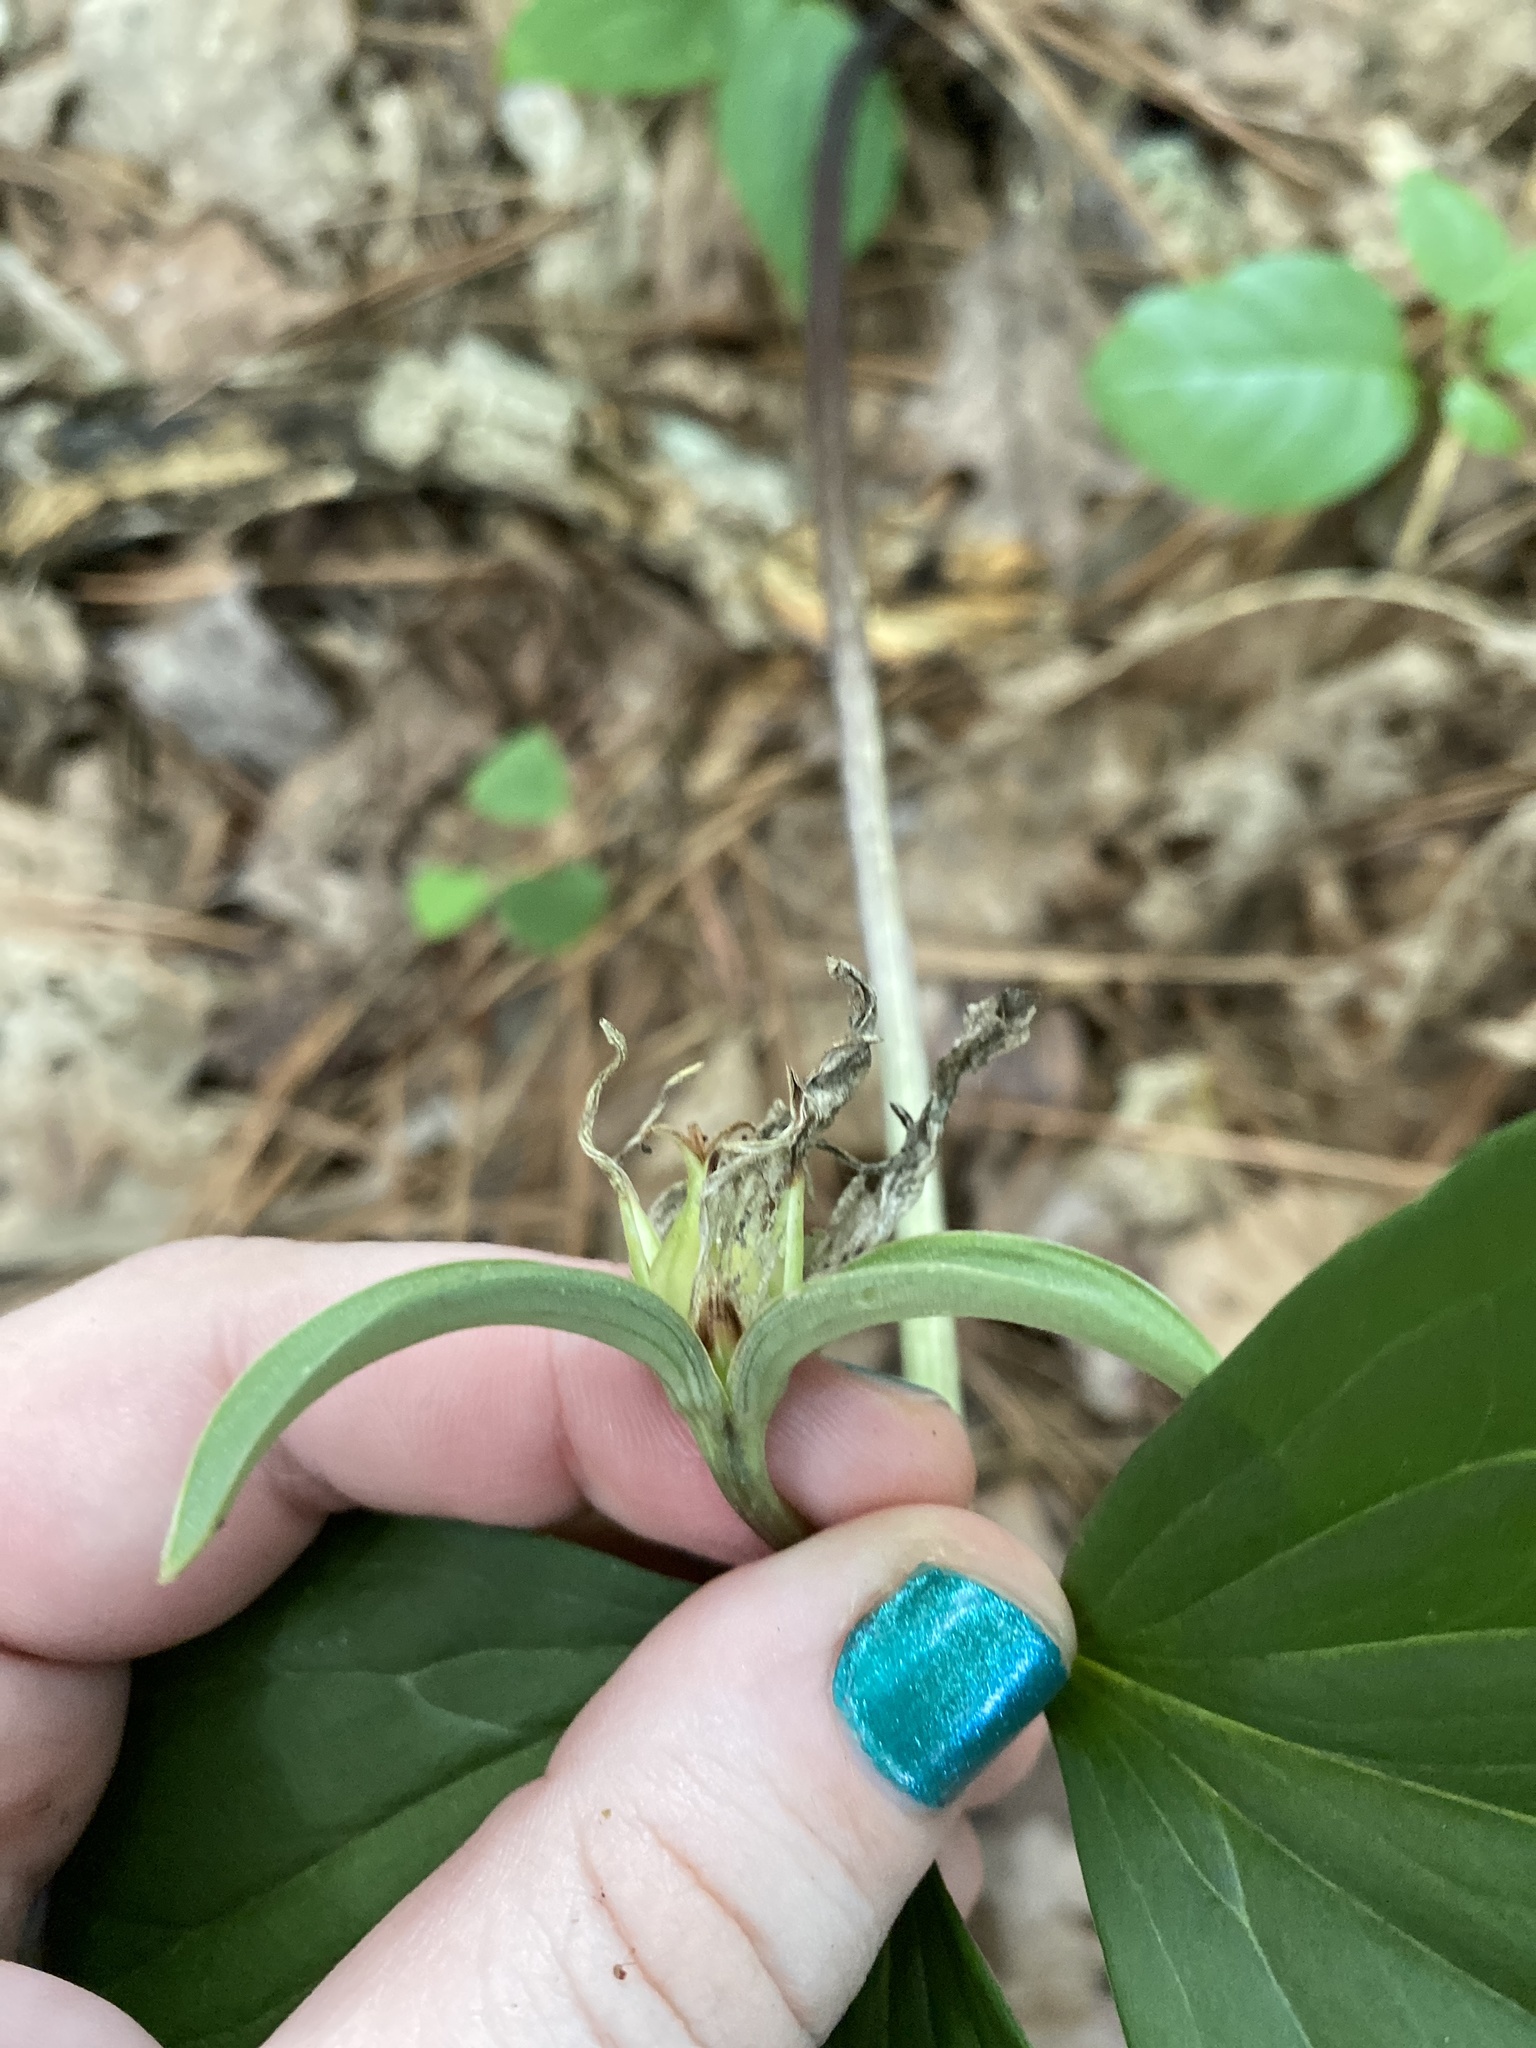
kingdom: Plantae
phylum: Tracheophyta
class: Liliopsida
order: Liliales
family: Melanthiaceae
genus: Trillium
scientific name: Trillium catesbaei
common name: Bashful trillium
